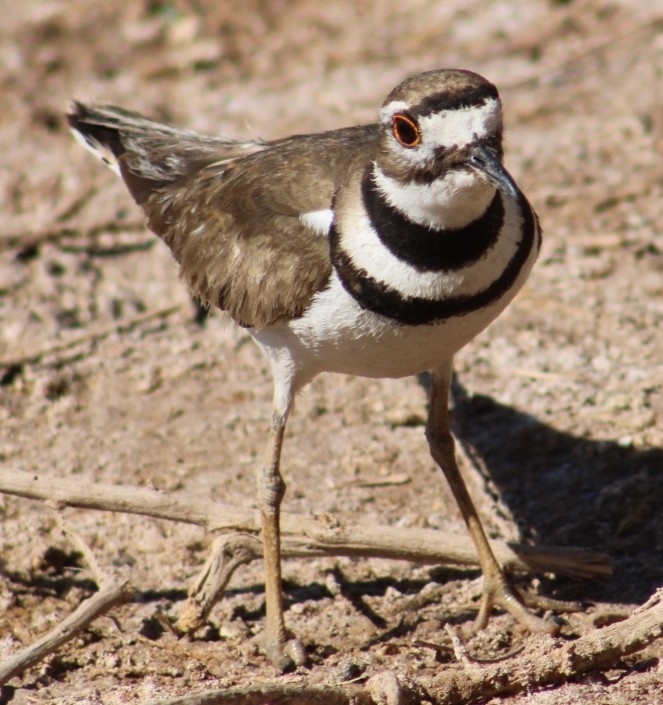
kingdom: Animalia
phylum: Chordata
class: Aves
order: Charadriiformes
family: Charadriidae
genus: Charadrius
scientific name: Charadrius vociferus
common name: Killdeer
